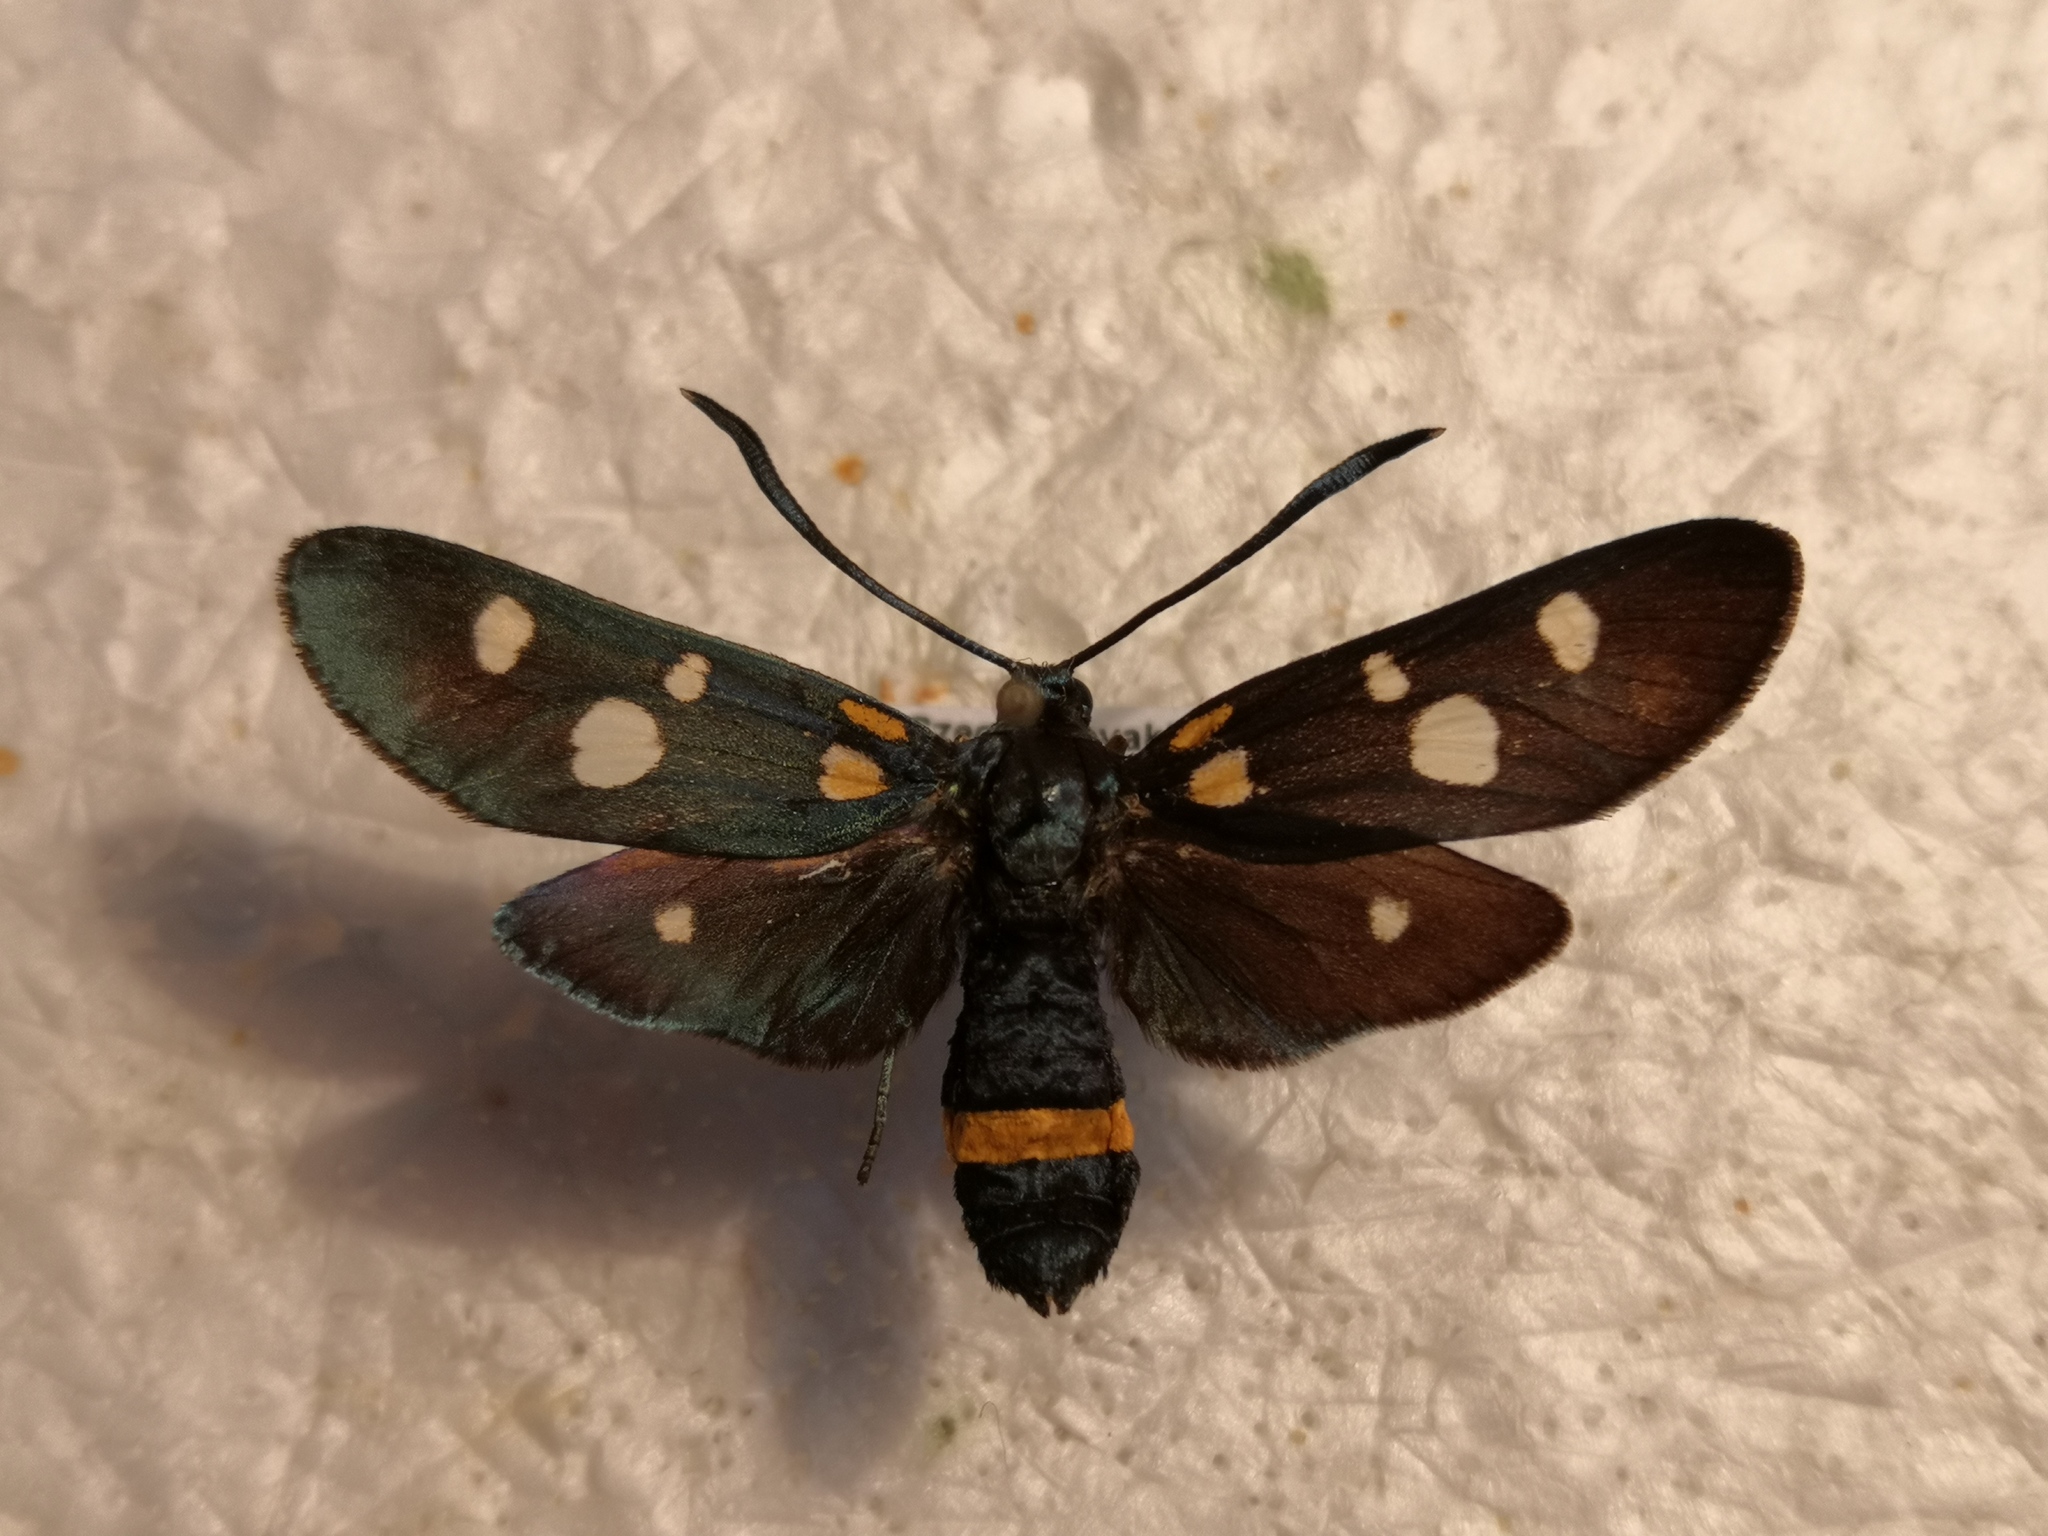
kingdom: Animalia
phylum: Arthropoda
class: Insecta
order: Lepidoptera
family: Zygaenidae
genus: Zygaena
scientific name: Zygaena ephialtes
